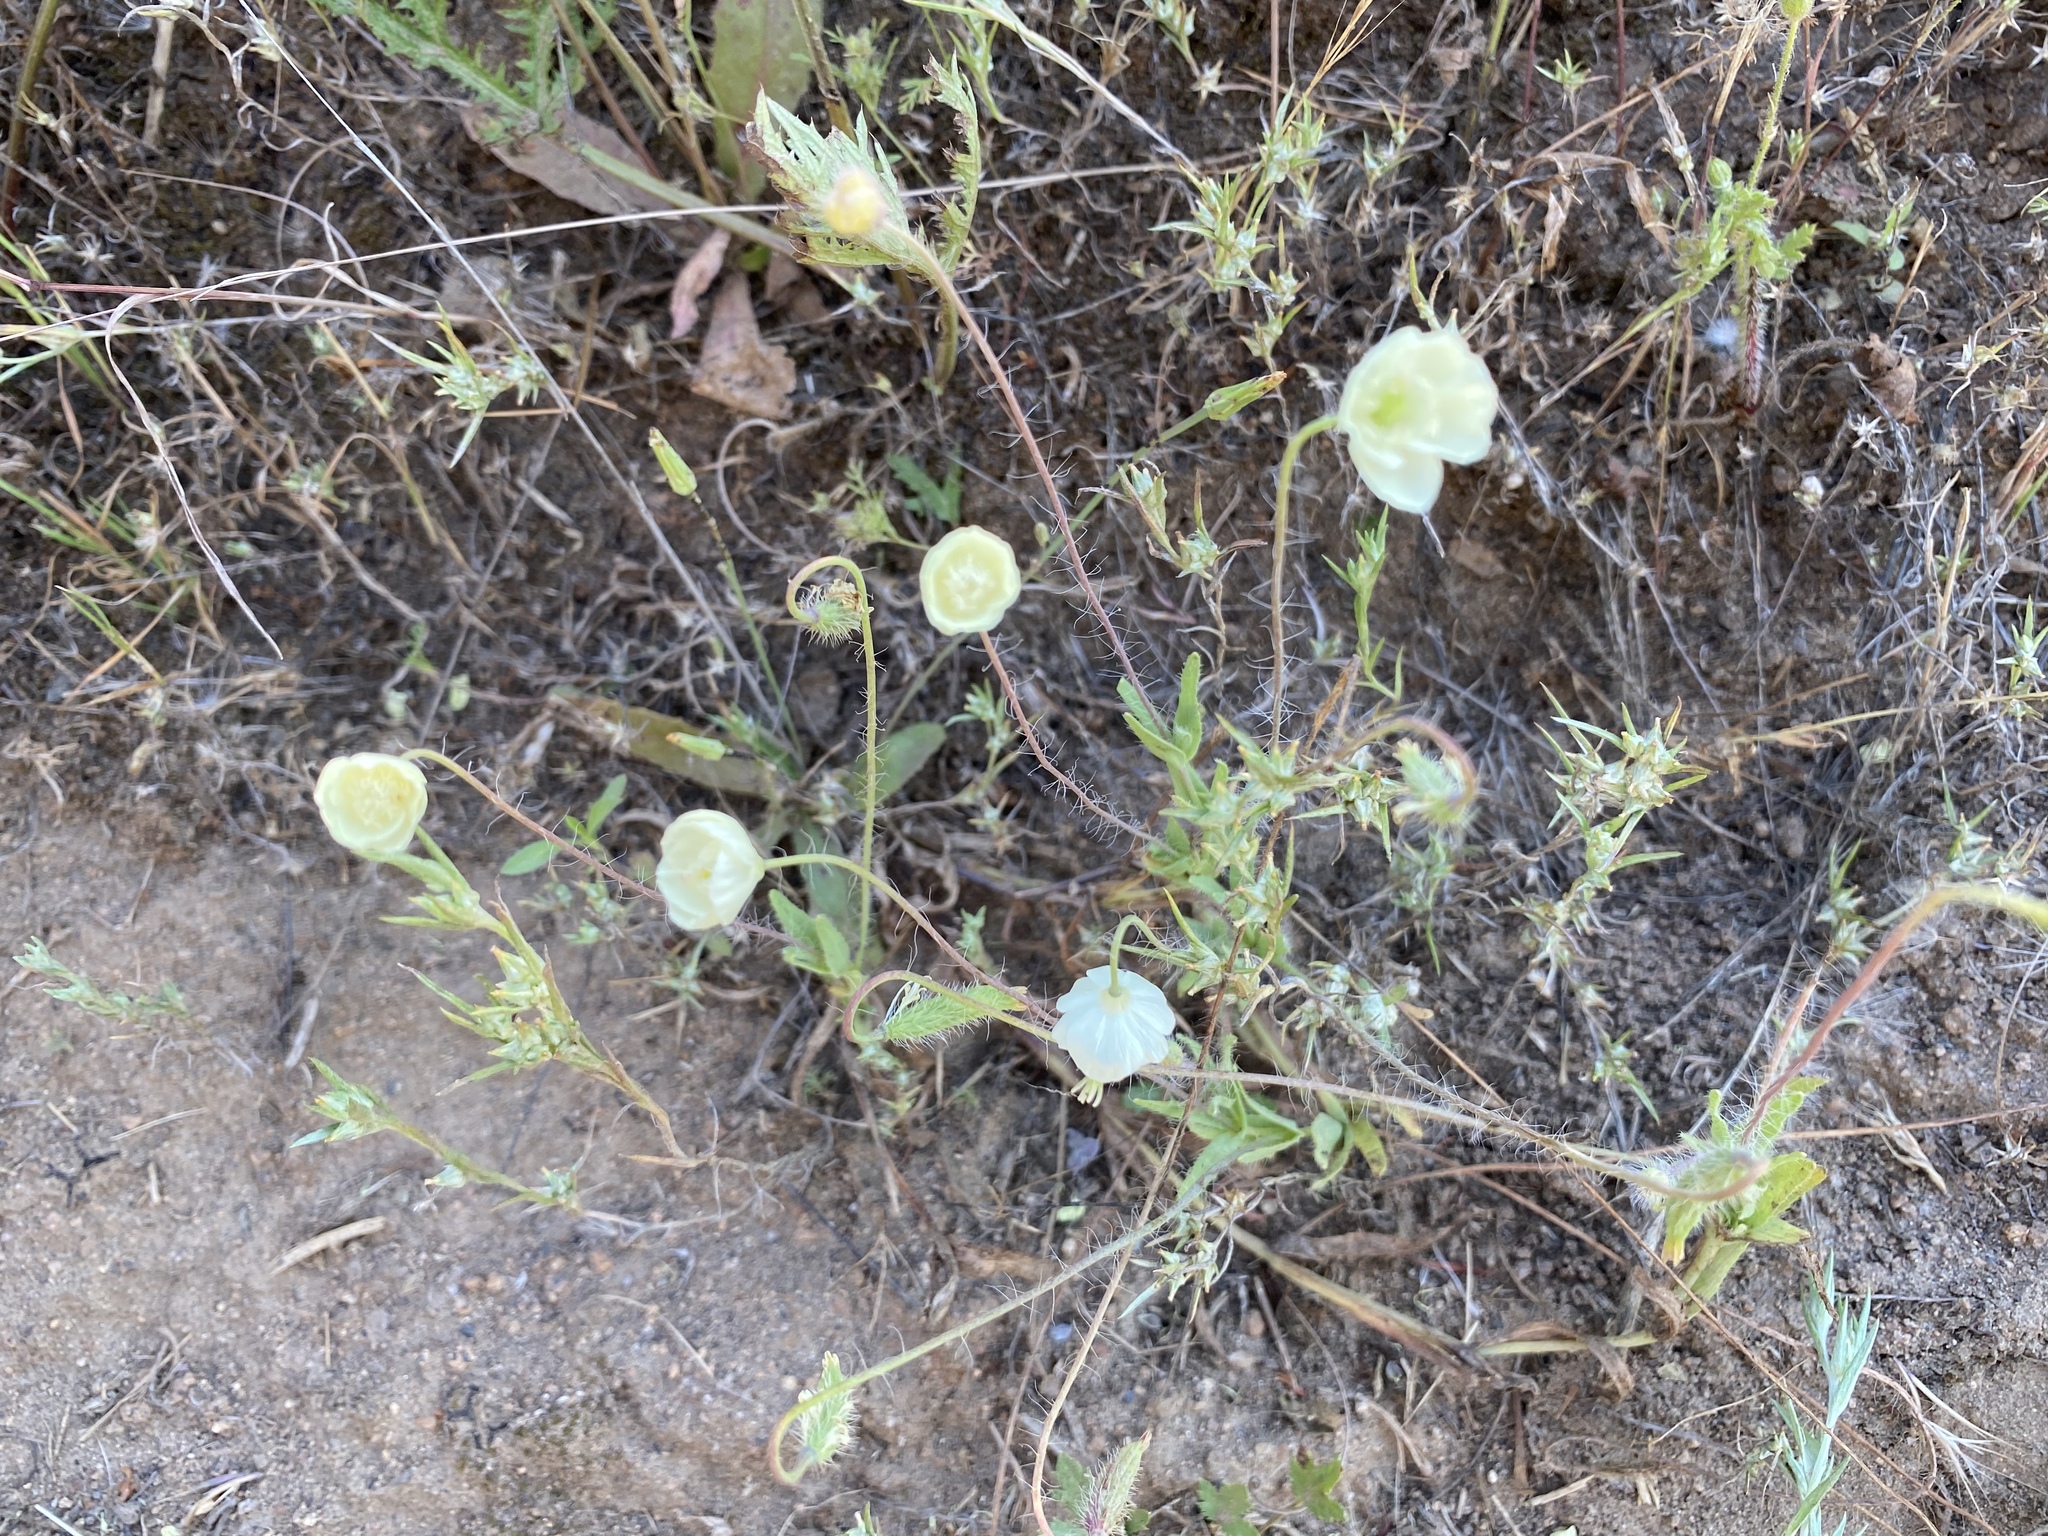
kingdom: Plantae
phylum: Tracheophyta
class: Magnoliopsida
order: Ranunculales
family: Papaveraceae
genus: Platystemon
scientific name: Platystemon californicus
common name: Cream-cups
